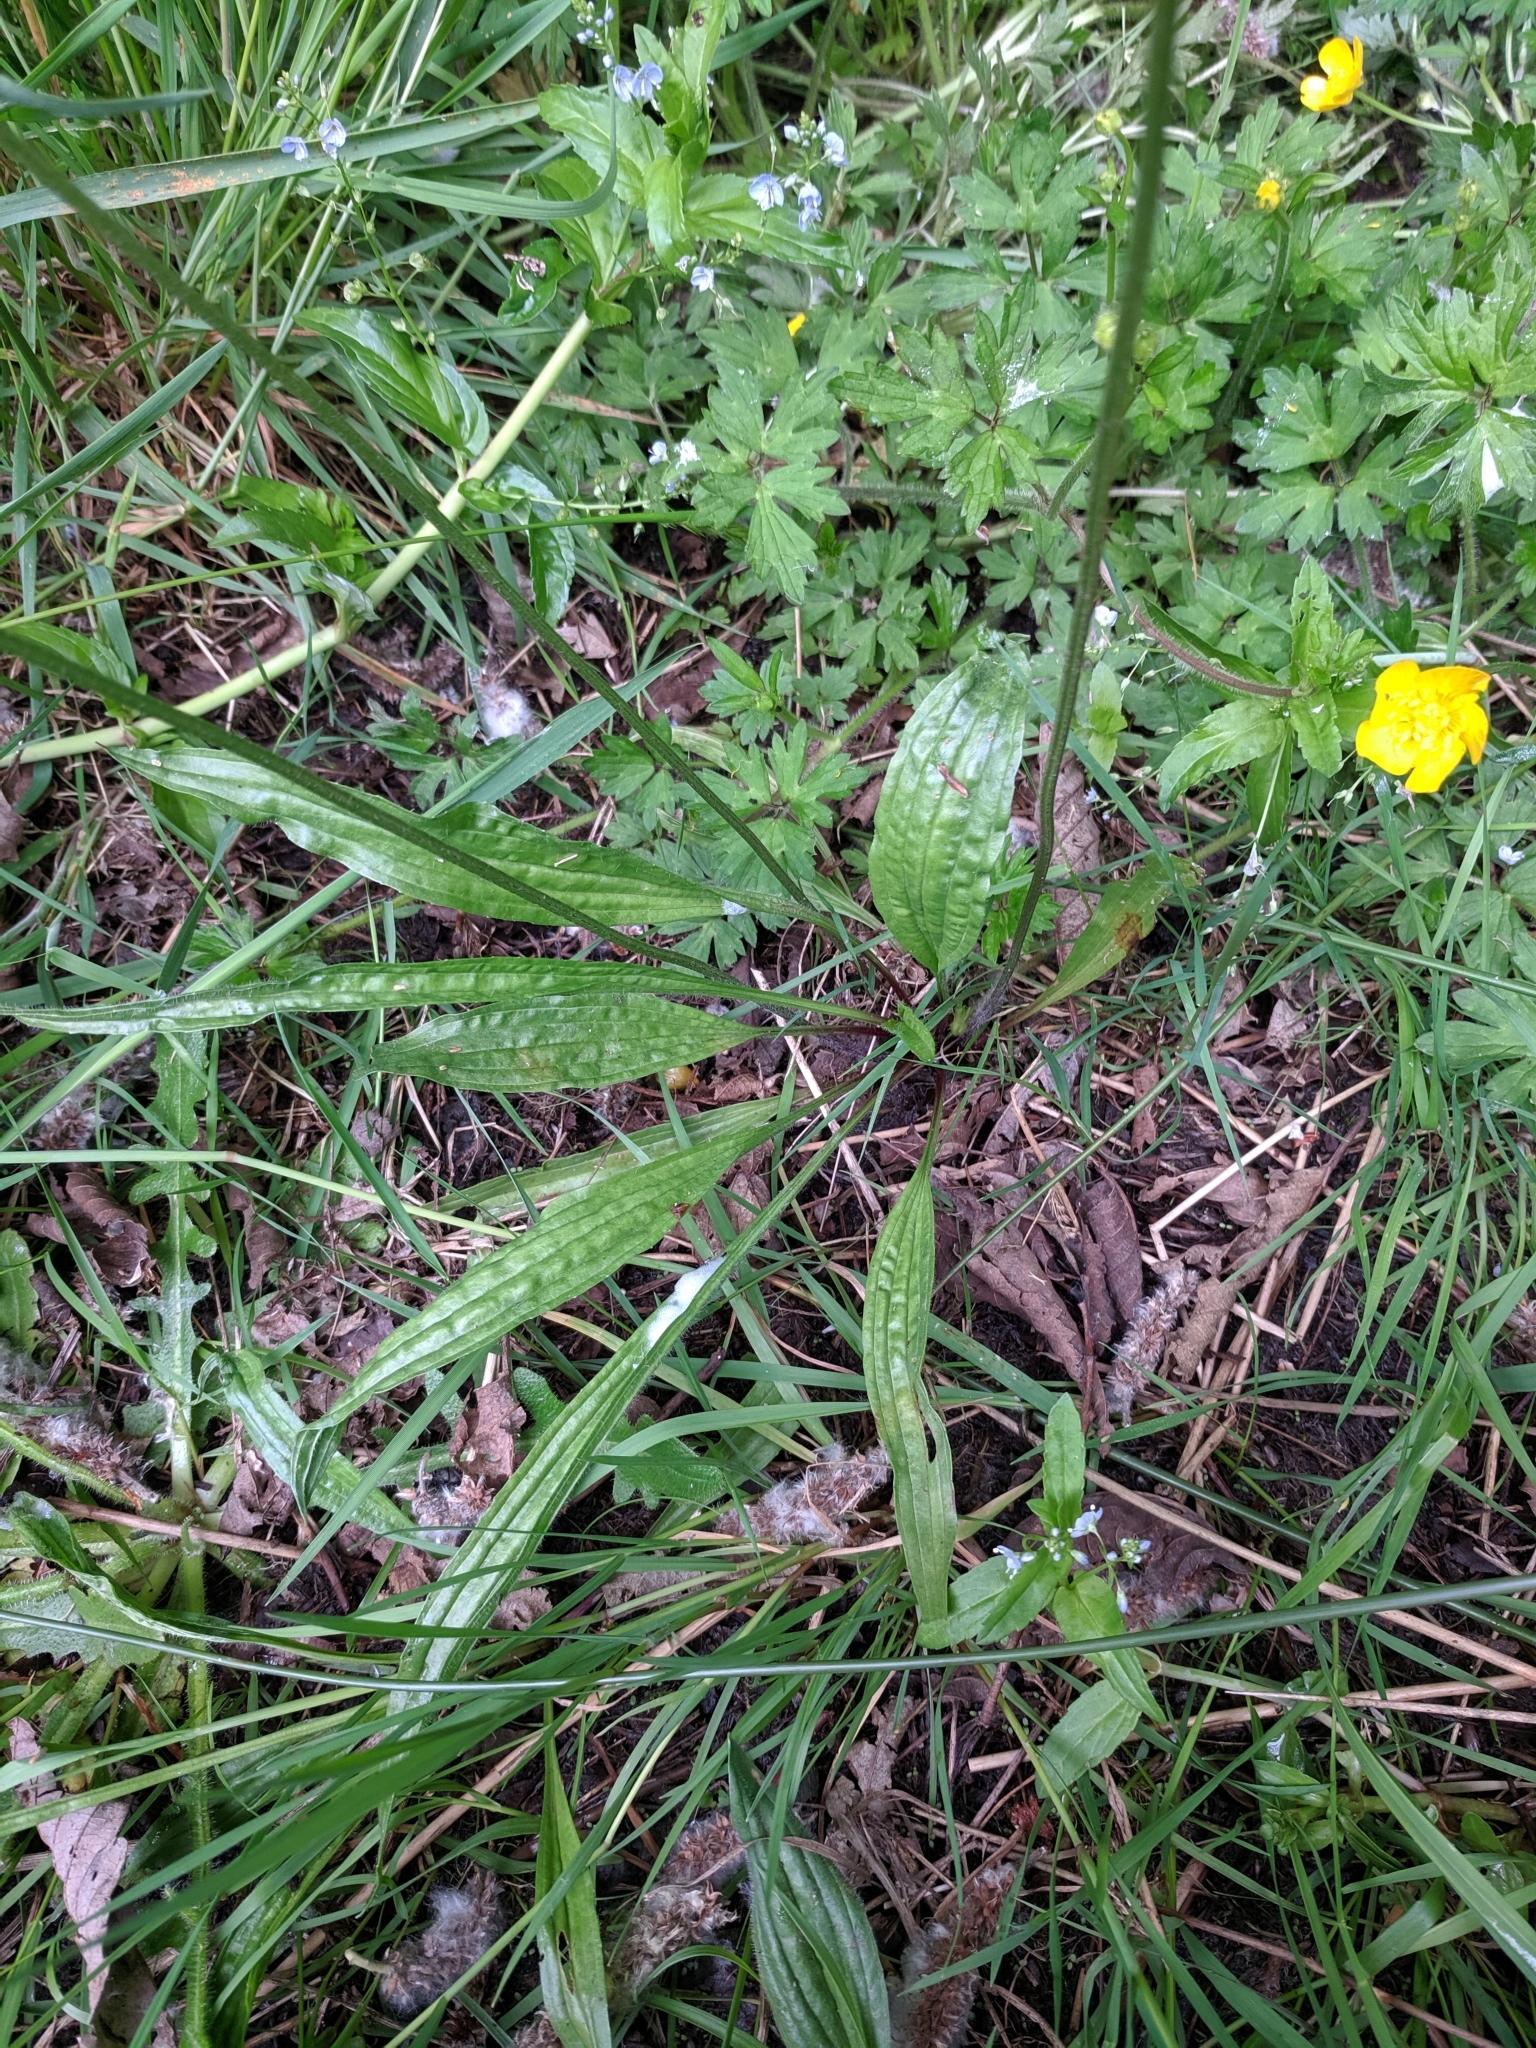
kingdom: Plantae
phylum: Tracheophyta
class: Magnoliopsida
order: Lamiales
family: Plantaginaceae
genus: Plantago
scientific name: Plantago lanceolata
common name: Ribwort plantain
